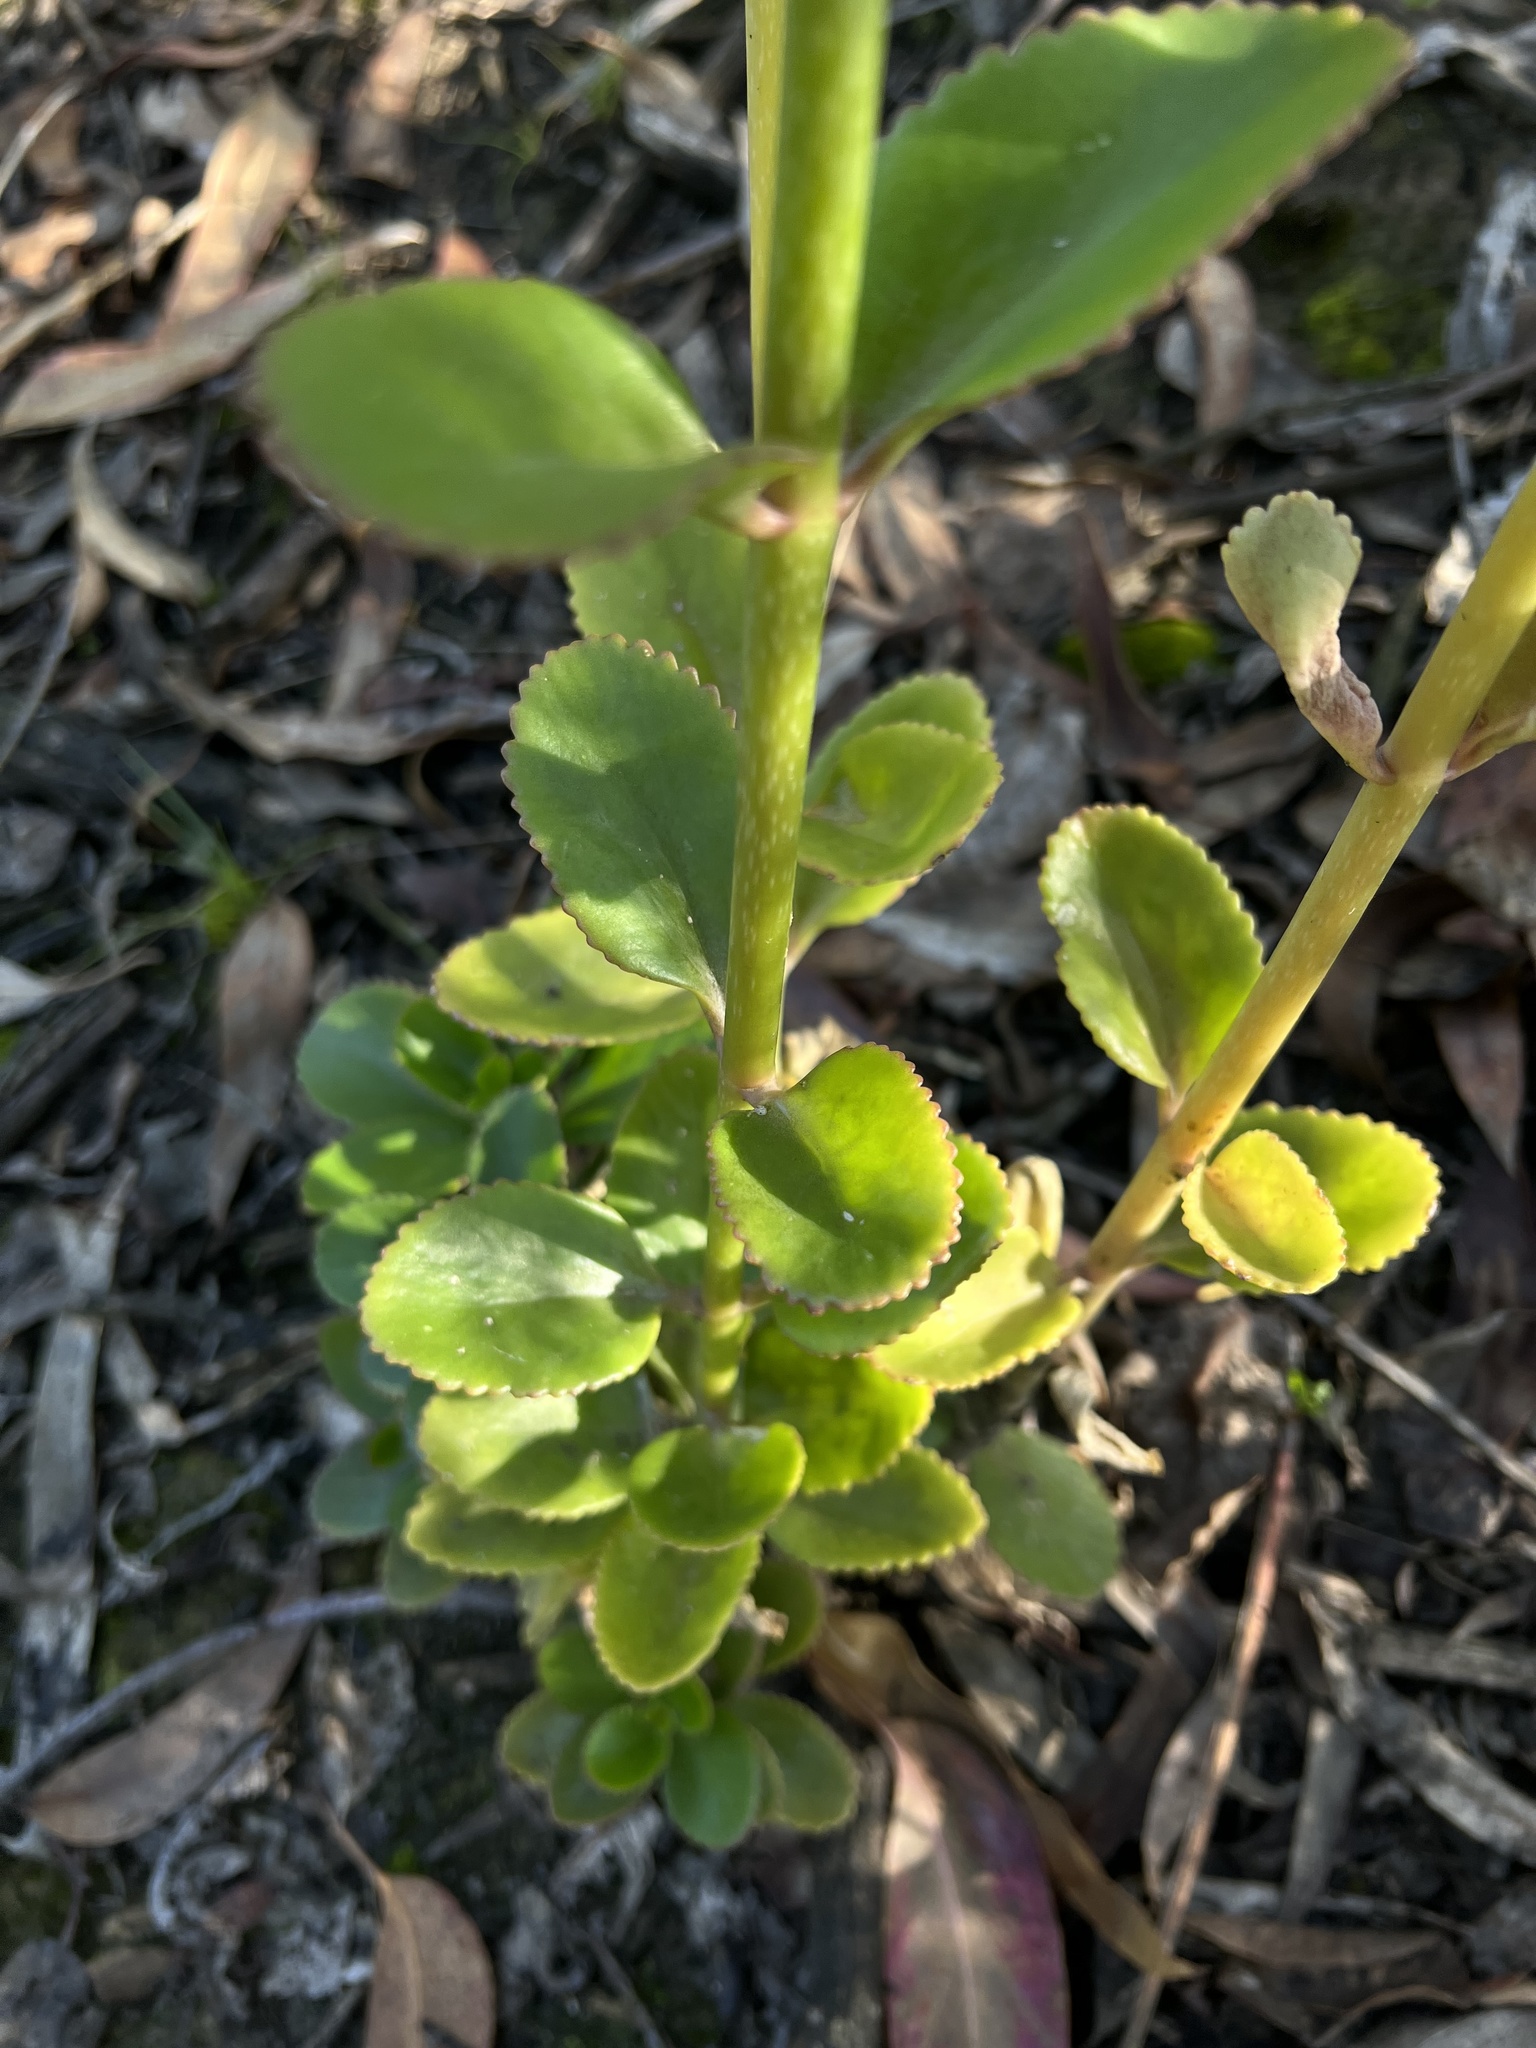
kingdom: Plantae
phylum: Tracheophyta
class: Magnoliopsida
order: Saxifragales
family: Crassulaceae
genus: Kalanchoe
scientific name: Kalanchoe densiflora
